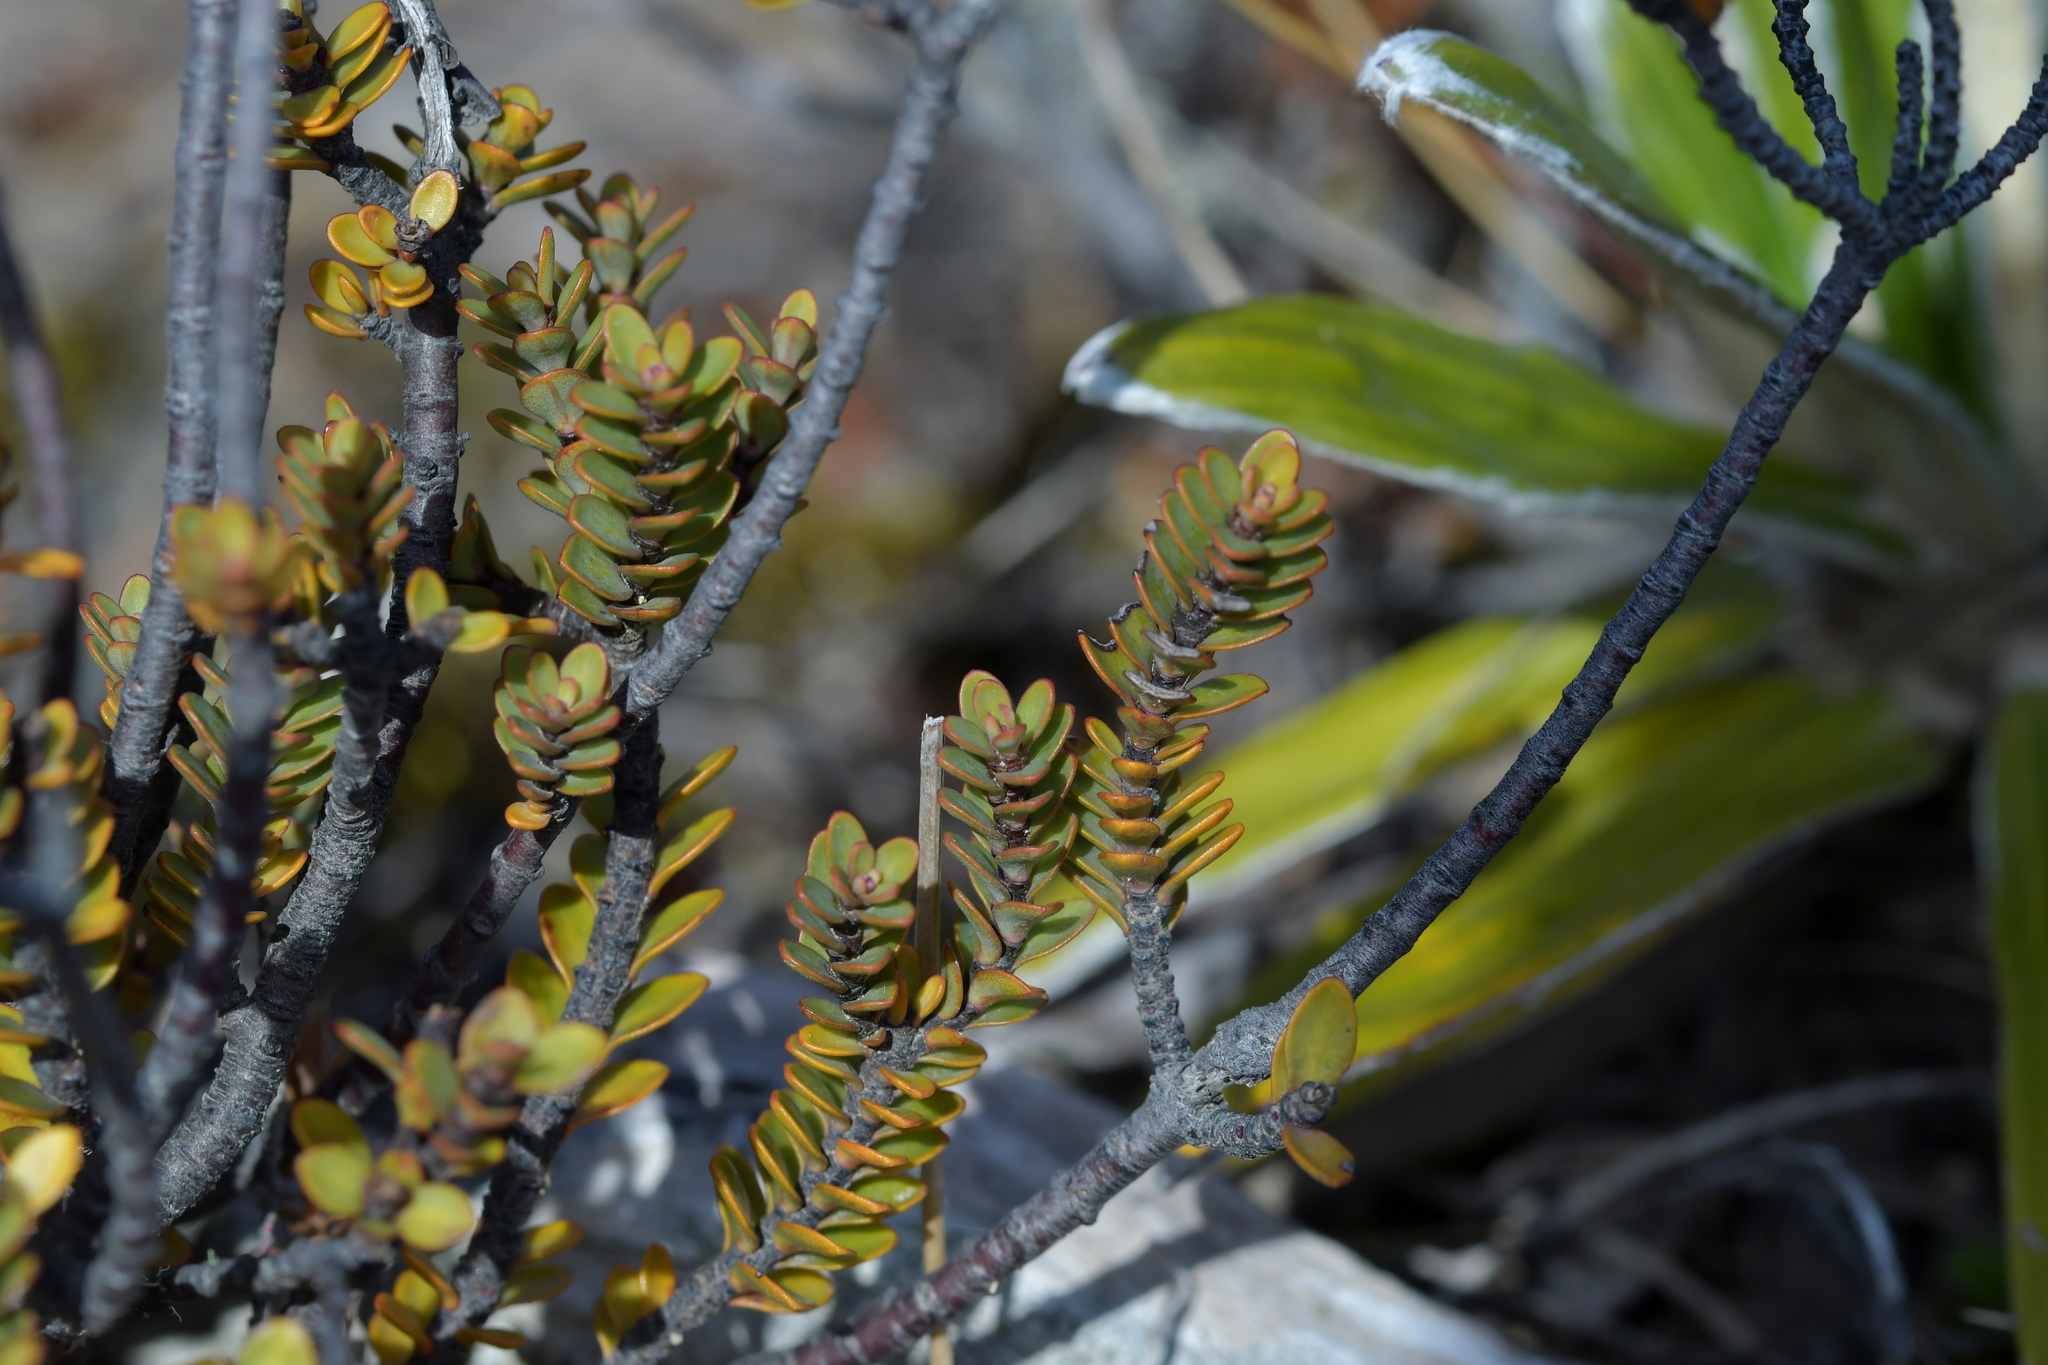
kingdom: Plantae
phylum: Tracheophyta
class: Magnoliopsida
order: Lamiales
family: Plantaginaceae
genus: Veronica
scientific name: Veronica pinguifolia
